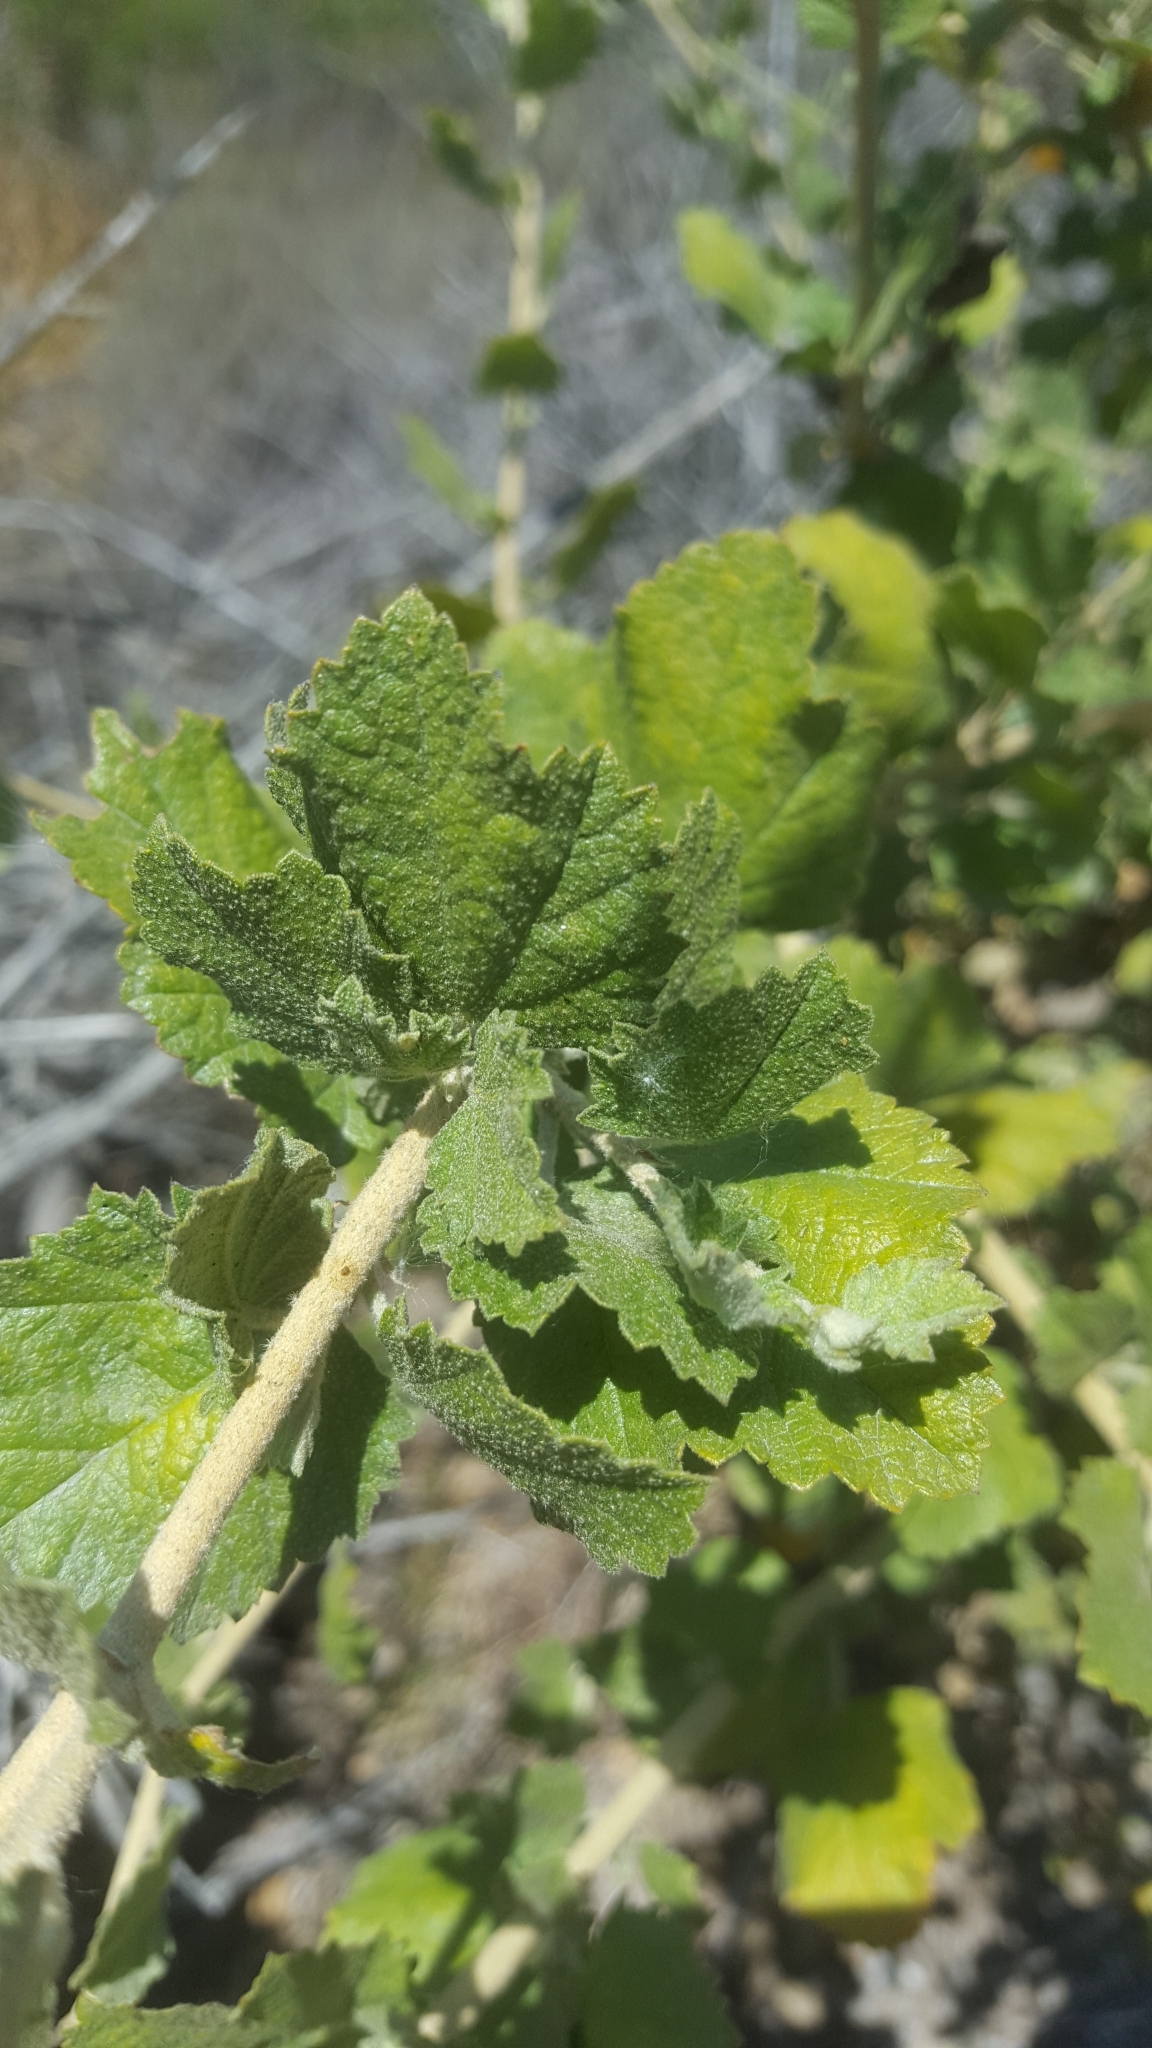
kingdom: Plantae
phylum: Tracheophyta
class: Magnoliopsida
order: Malvales
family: Malvaceae
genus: Malacothamnus
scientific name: Malacothamnus fasciculatus
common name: Sant cruz island bush-mallow
